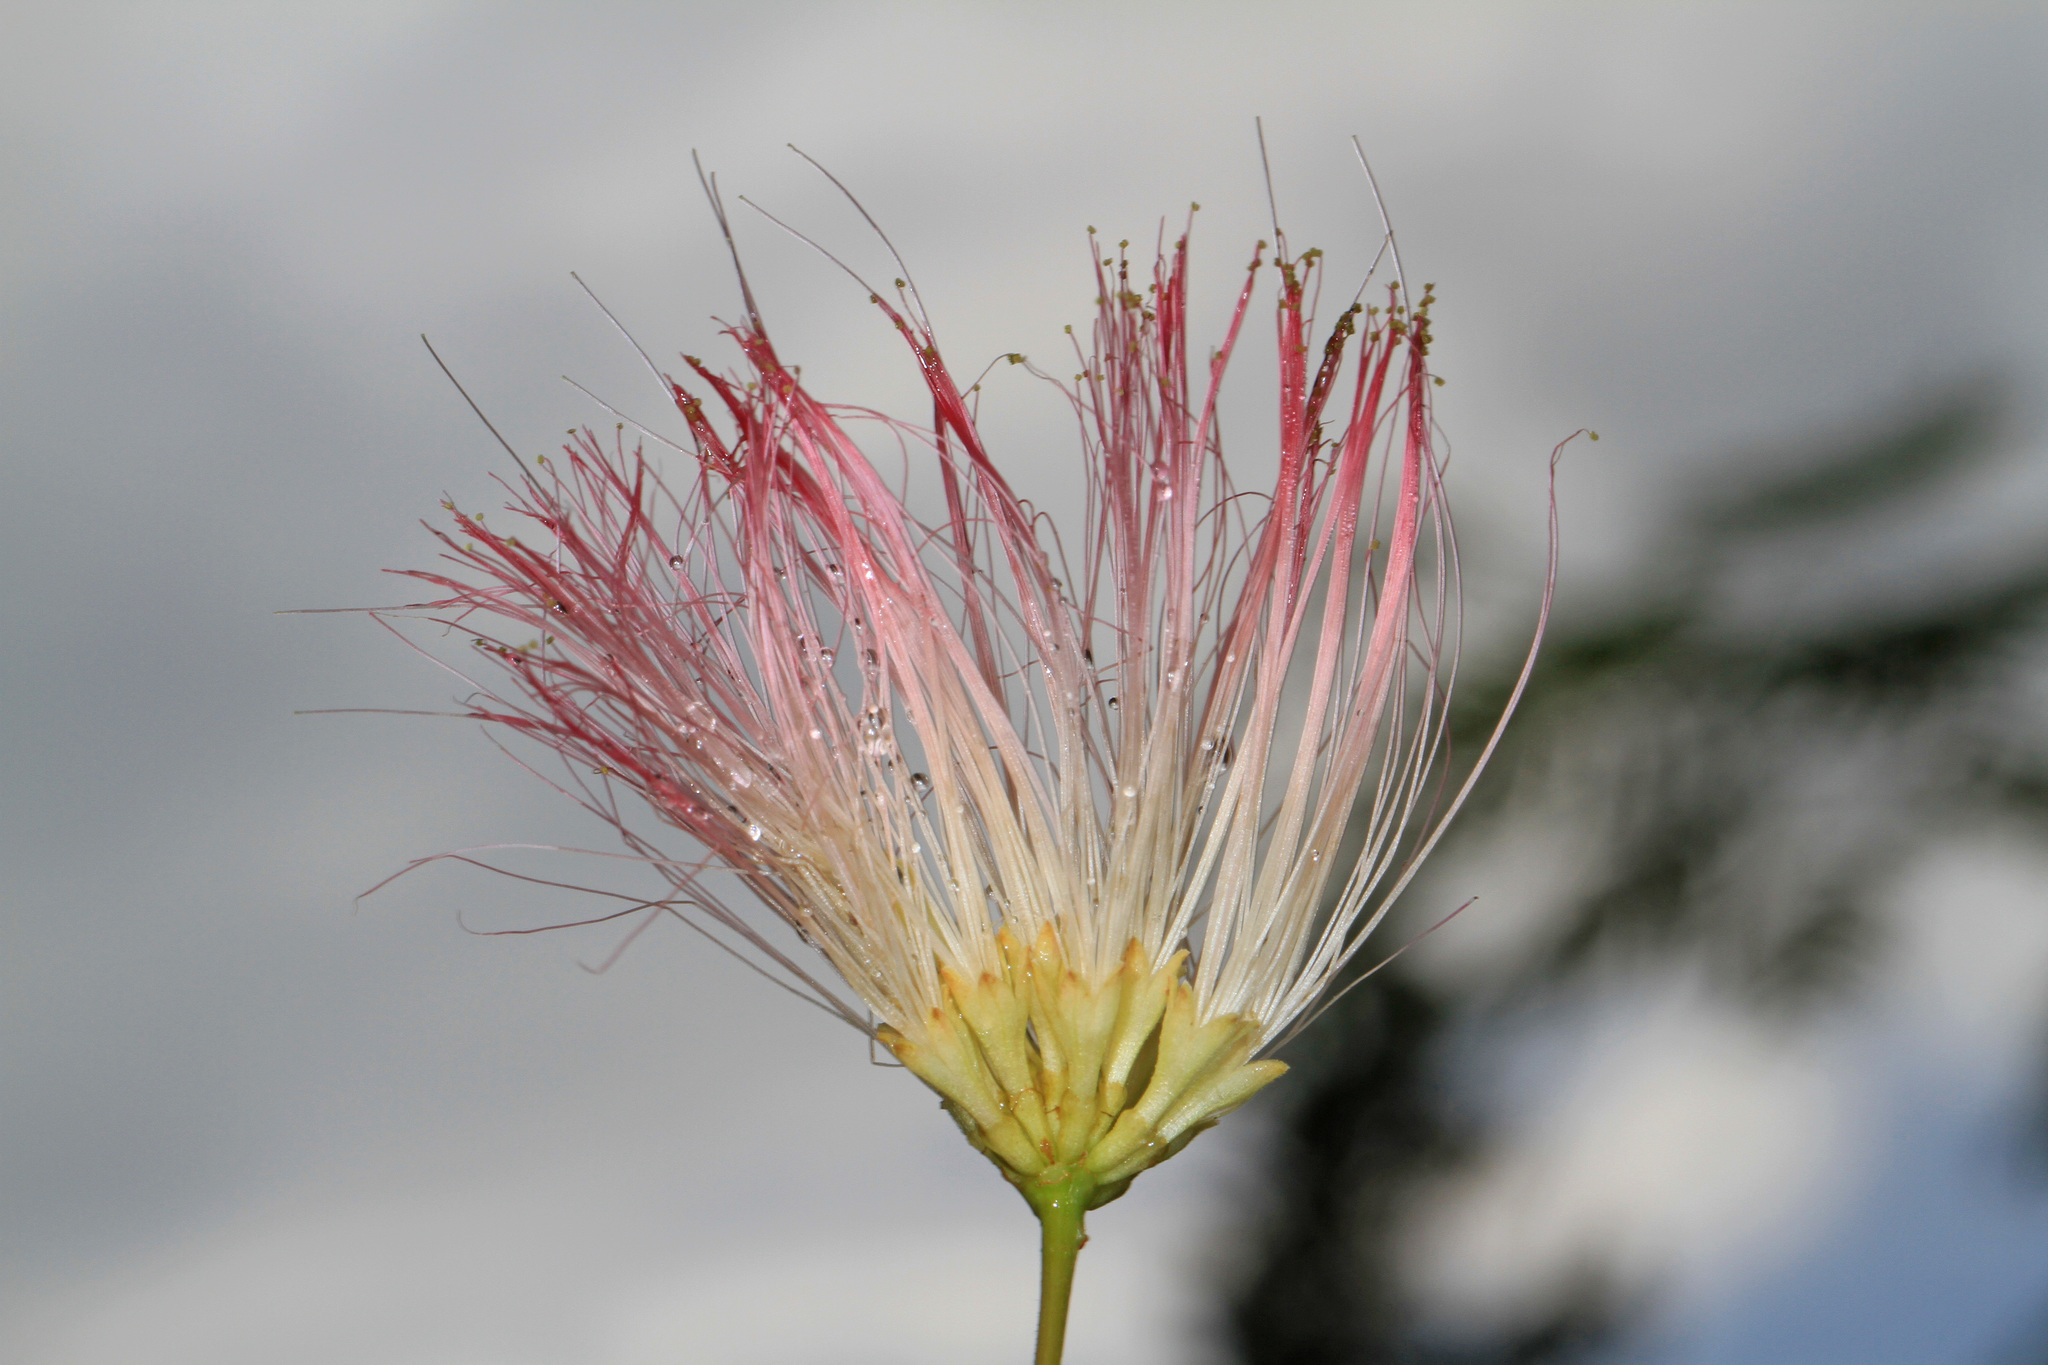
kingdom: Plantae
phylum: Tracheophyta
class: Magnoliopsida
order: Fabales
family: Fabaceae
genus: Albizia
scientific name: Albizia julibrissin
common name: Silktree
